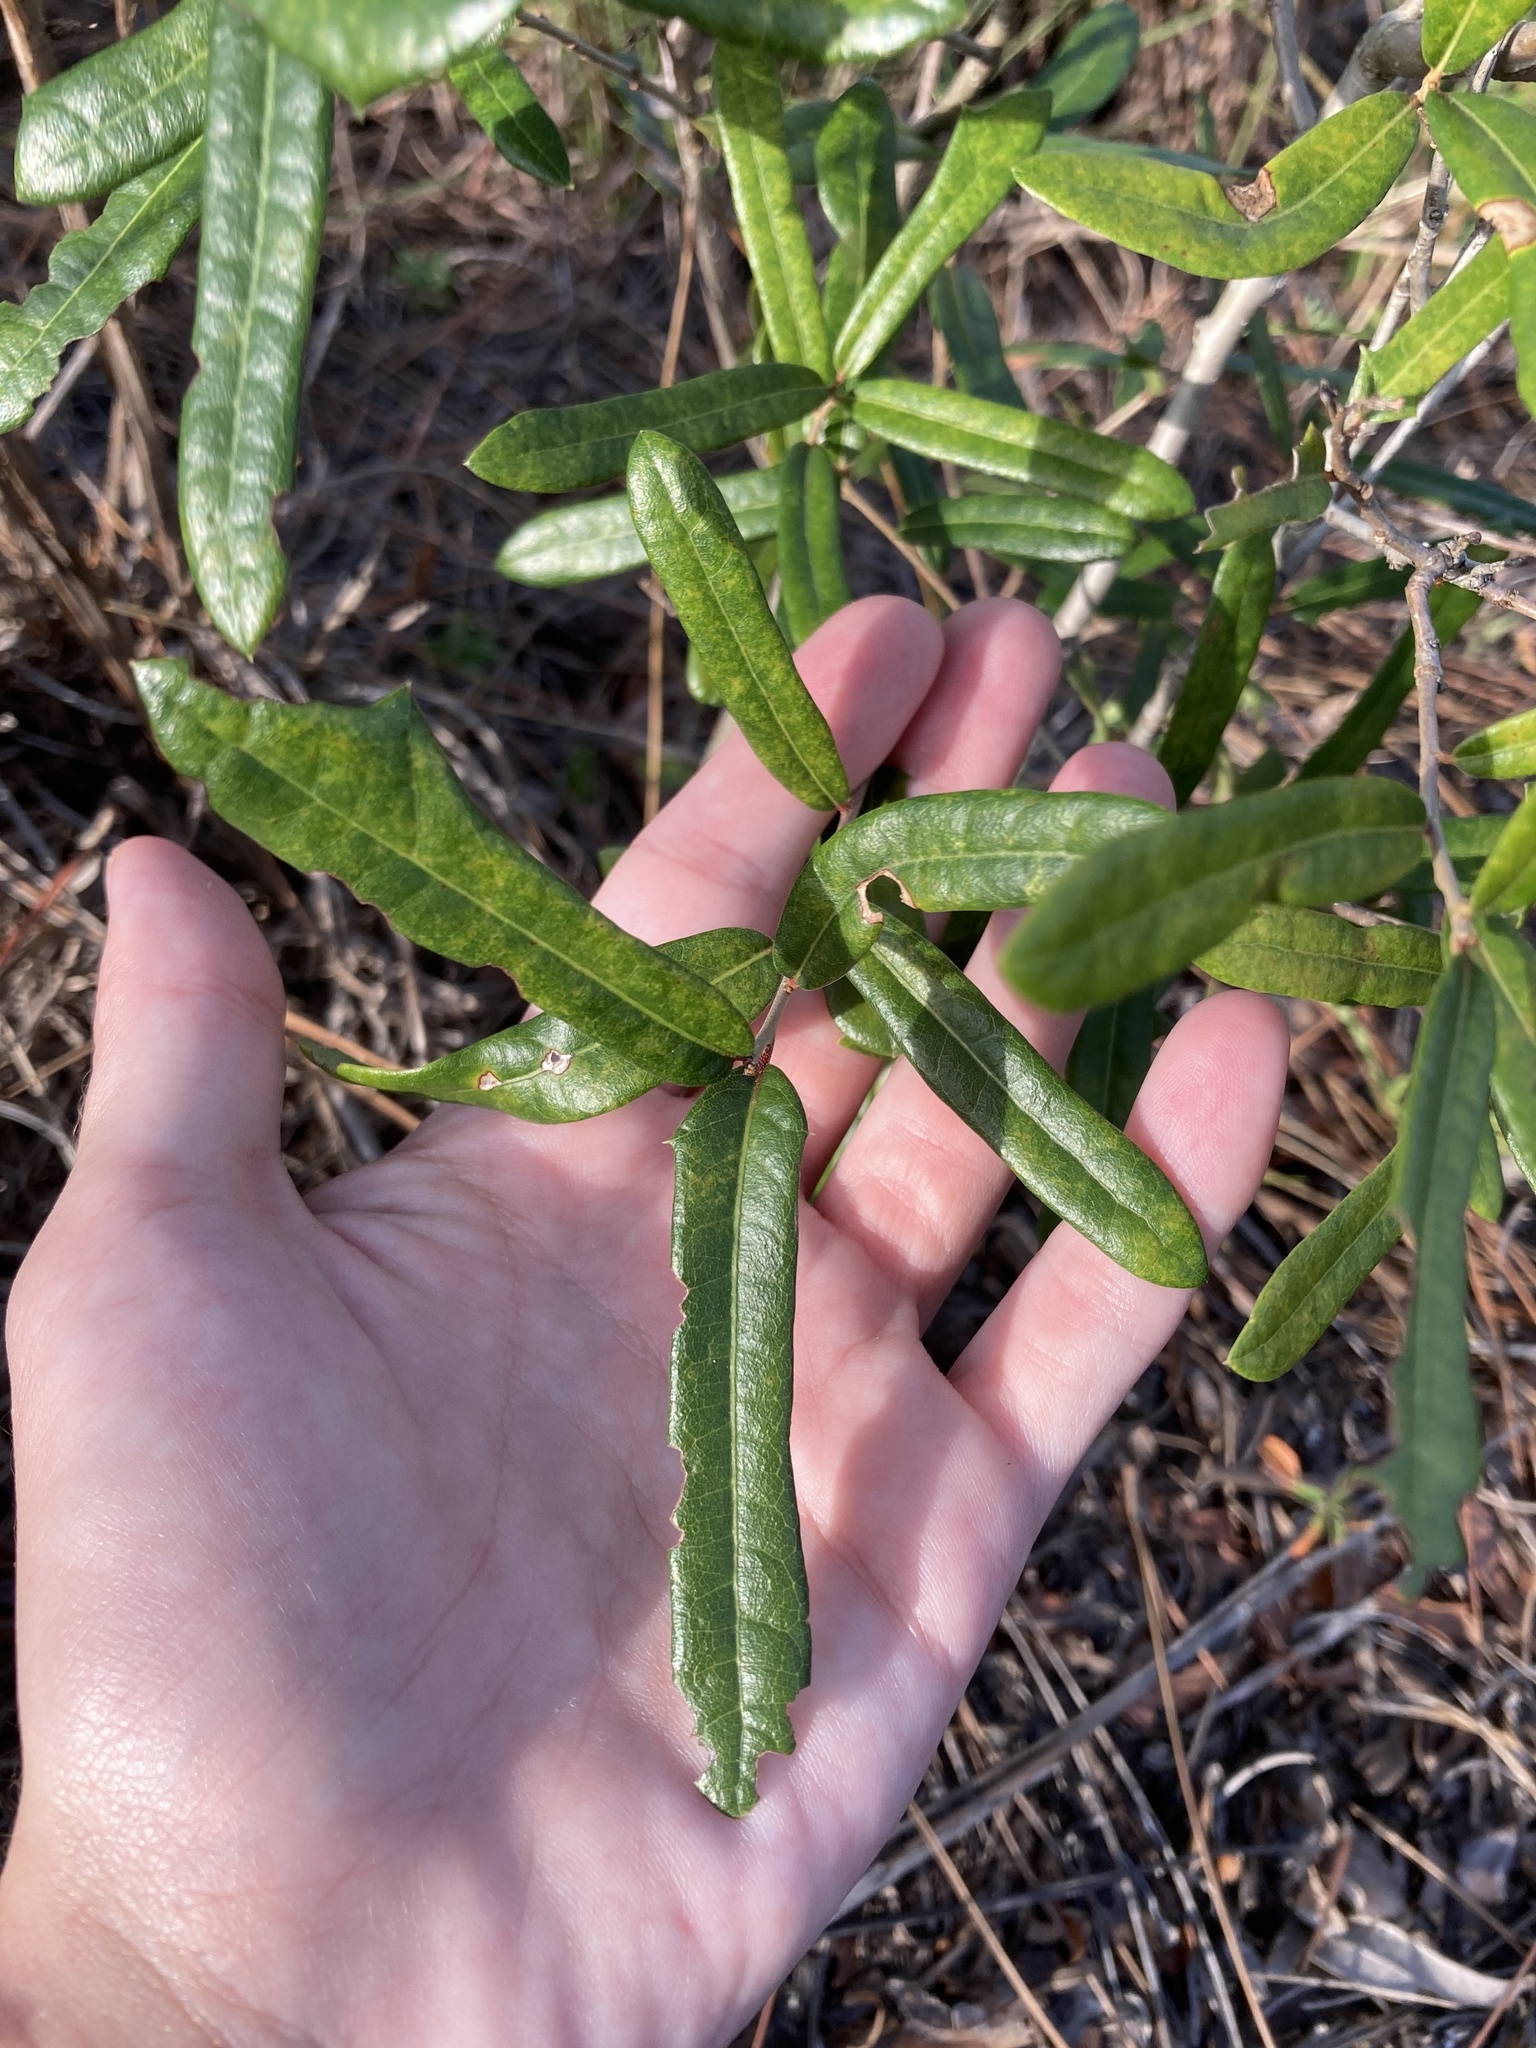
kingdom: Plantae
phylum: Tracheophyta
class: Magnoliopsida
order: Fagales
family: Fagaceae
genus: Quercus
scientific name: Quercus minima
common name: Dwarf live oak
